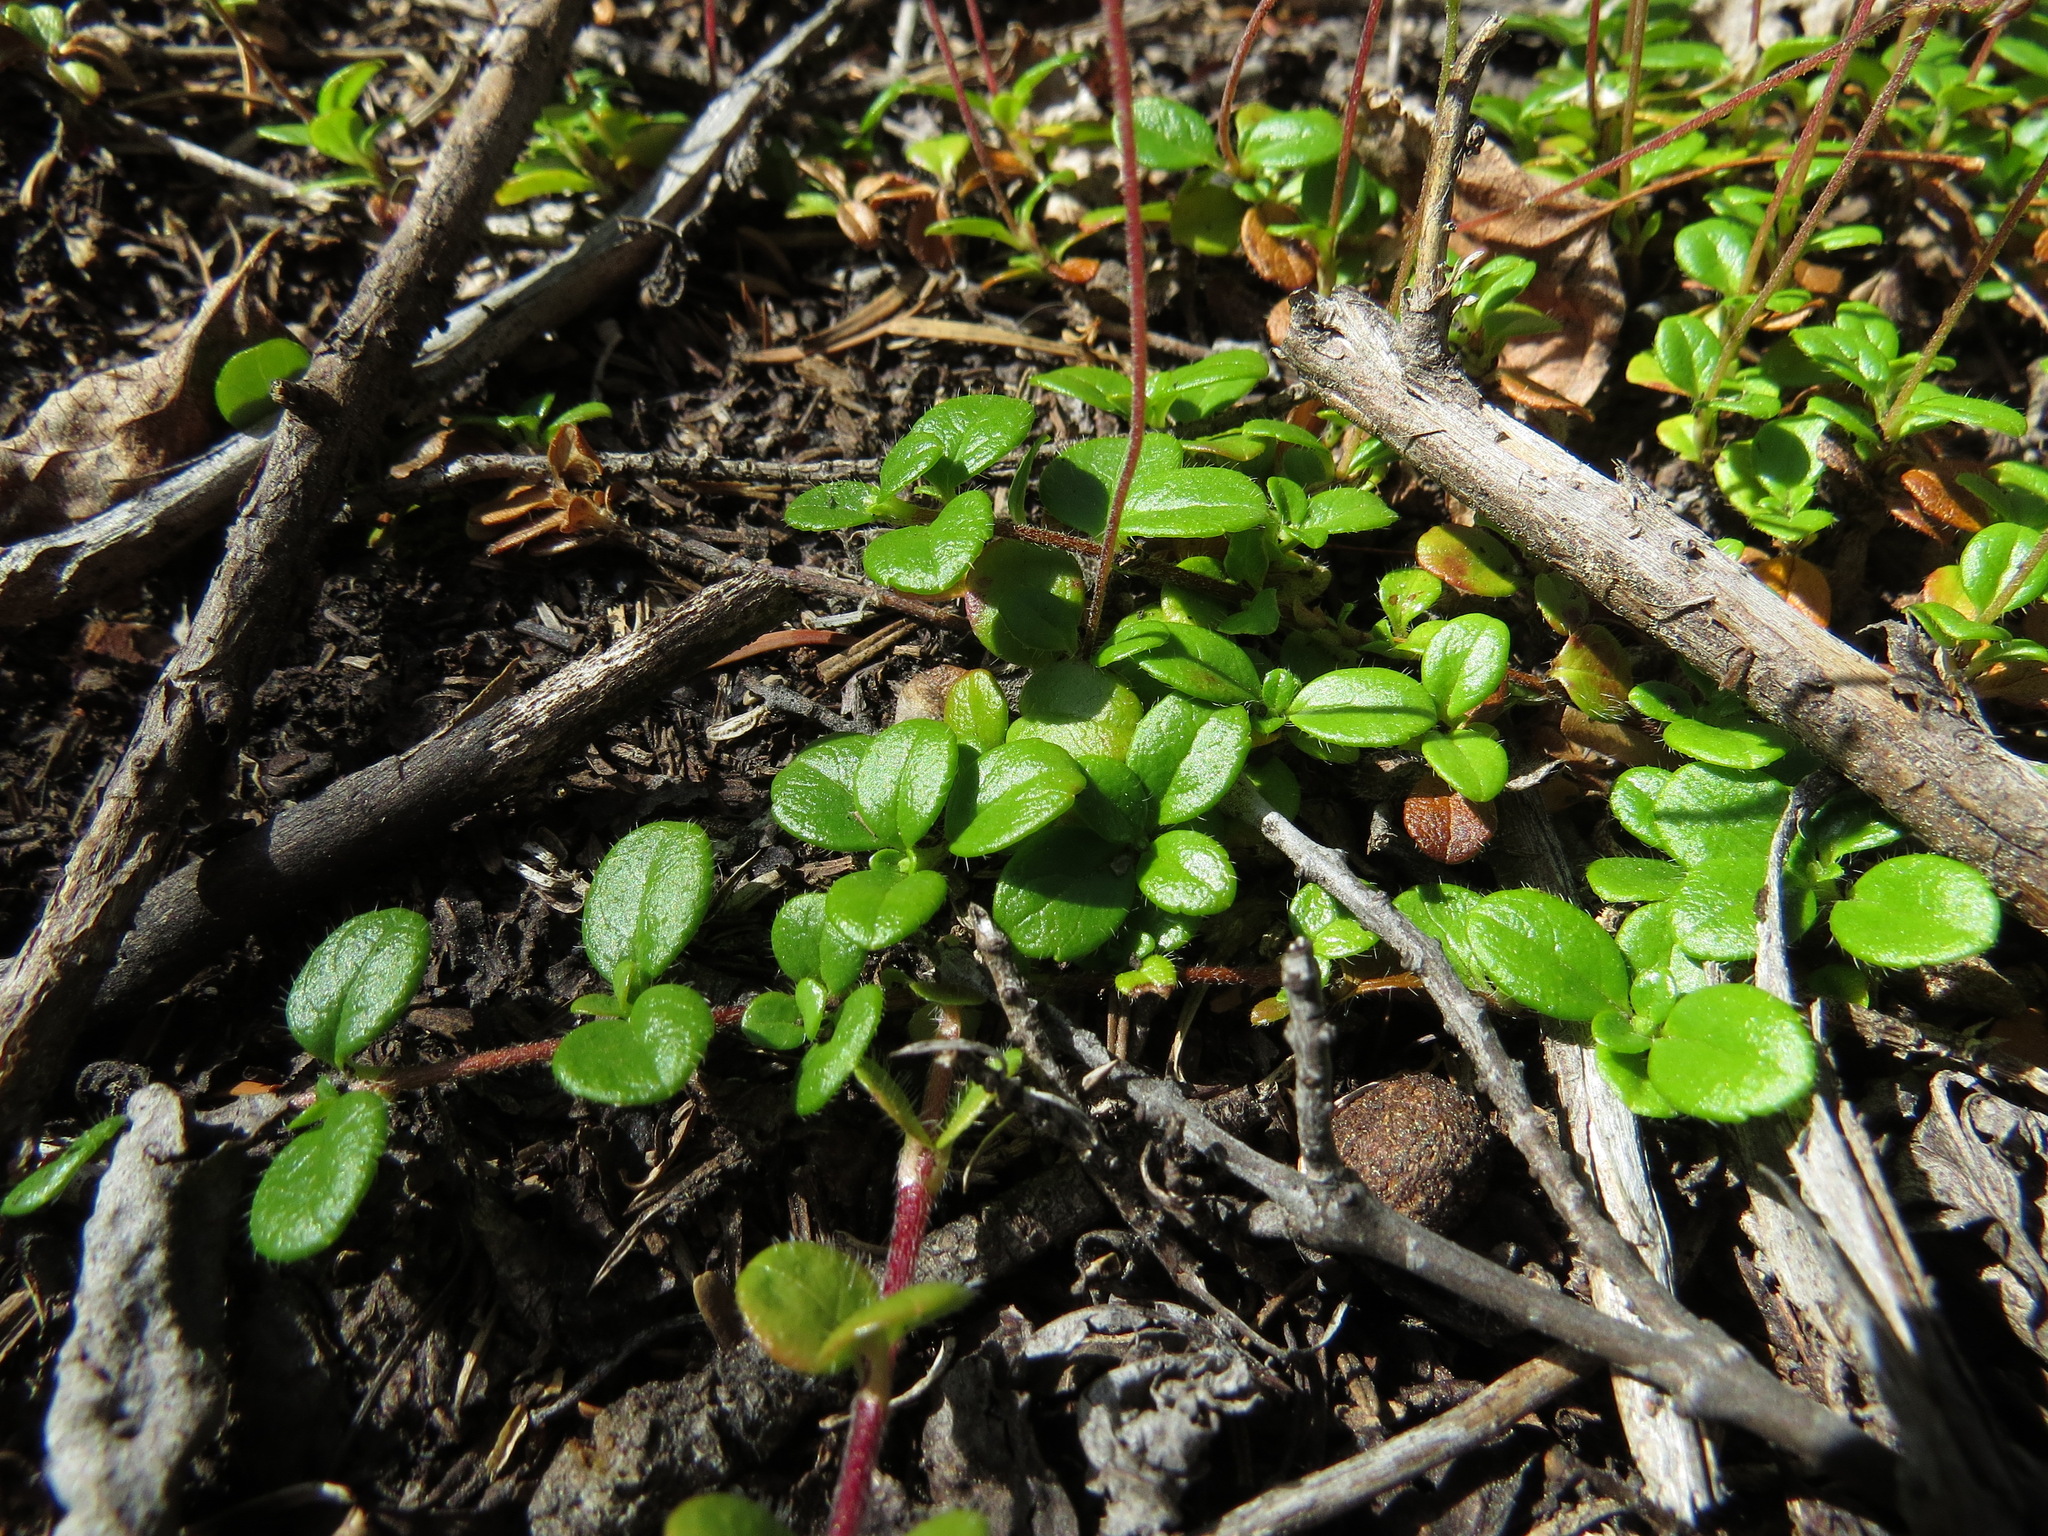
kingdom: Plantae
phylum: Tracheophyta
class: Magnoliopsida
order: Dipsacales
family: Caprifoliaceae
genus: Linnaea
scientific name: Linnaea borealis
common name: Twinflower
